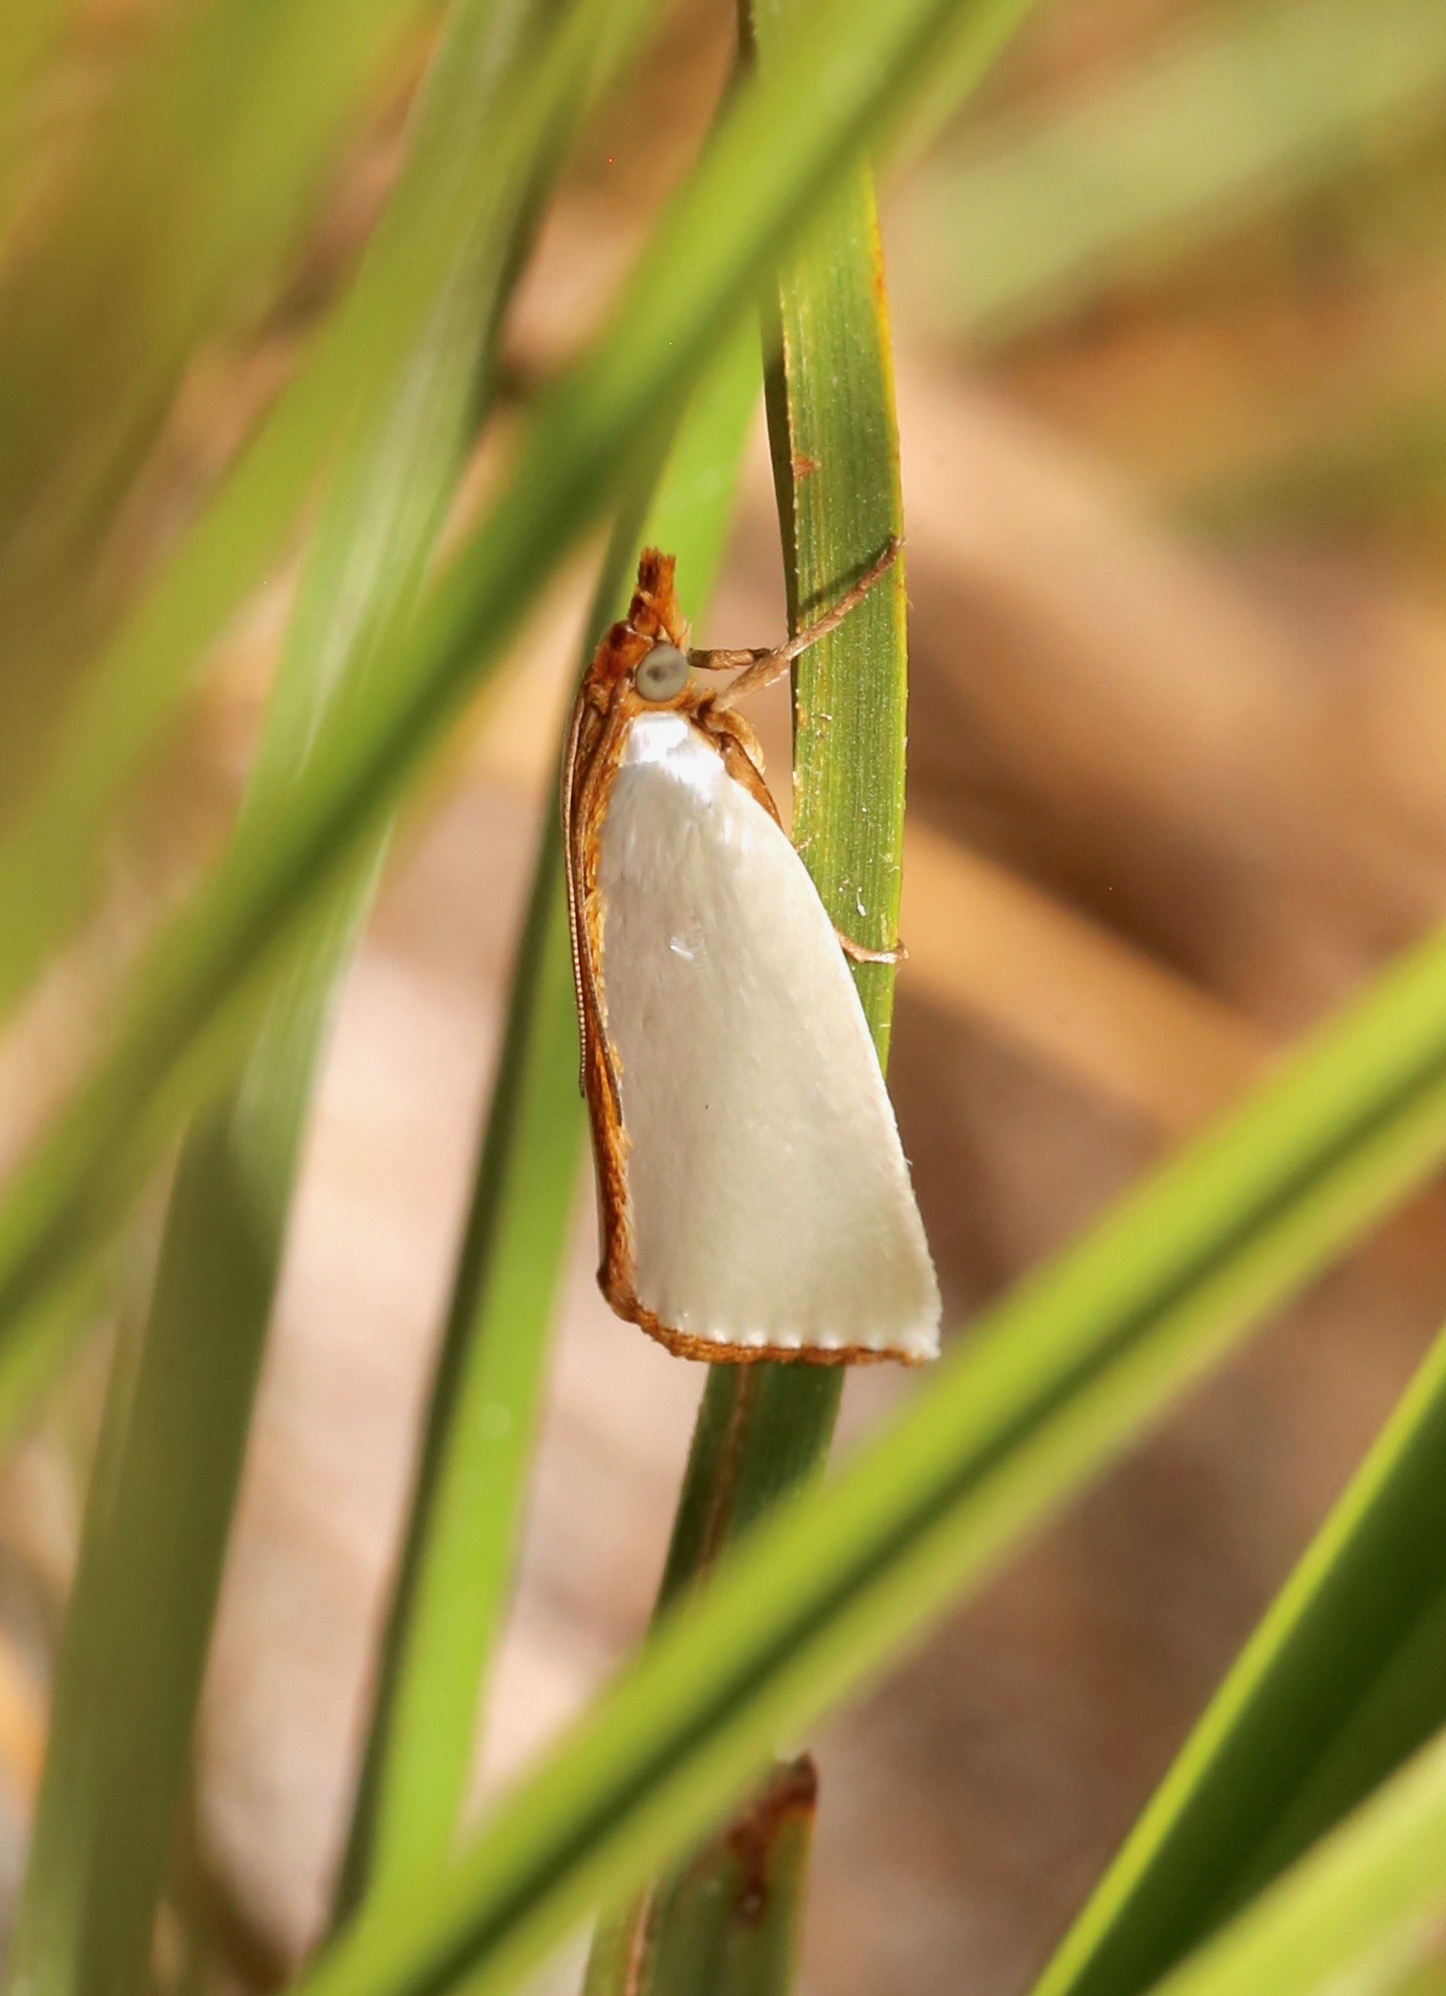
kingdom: Animalia
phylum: Arthropoda
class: Insecta
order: Lepidoptera
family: Crambidae
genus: Argyria
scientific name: Argyria
